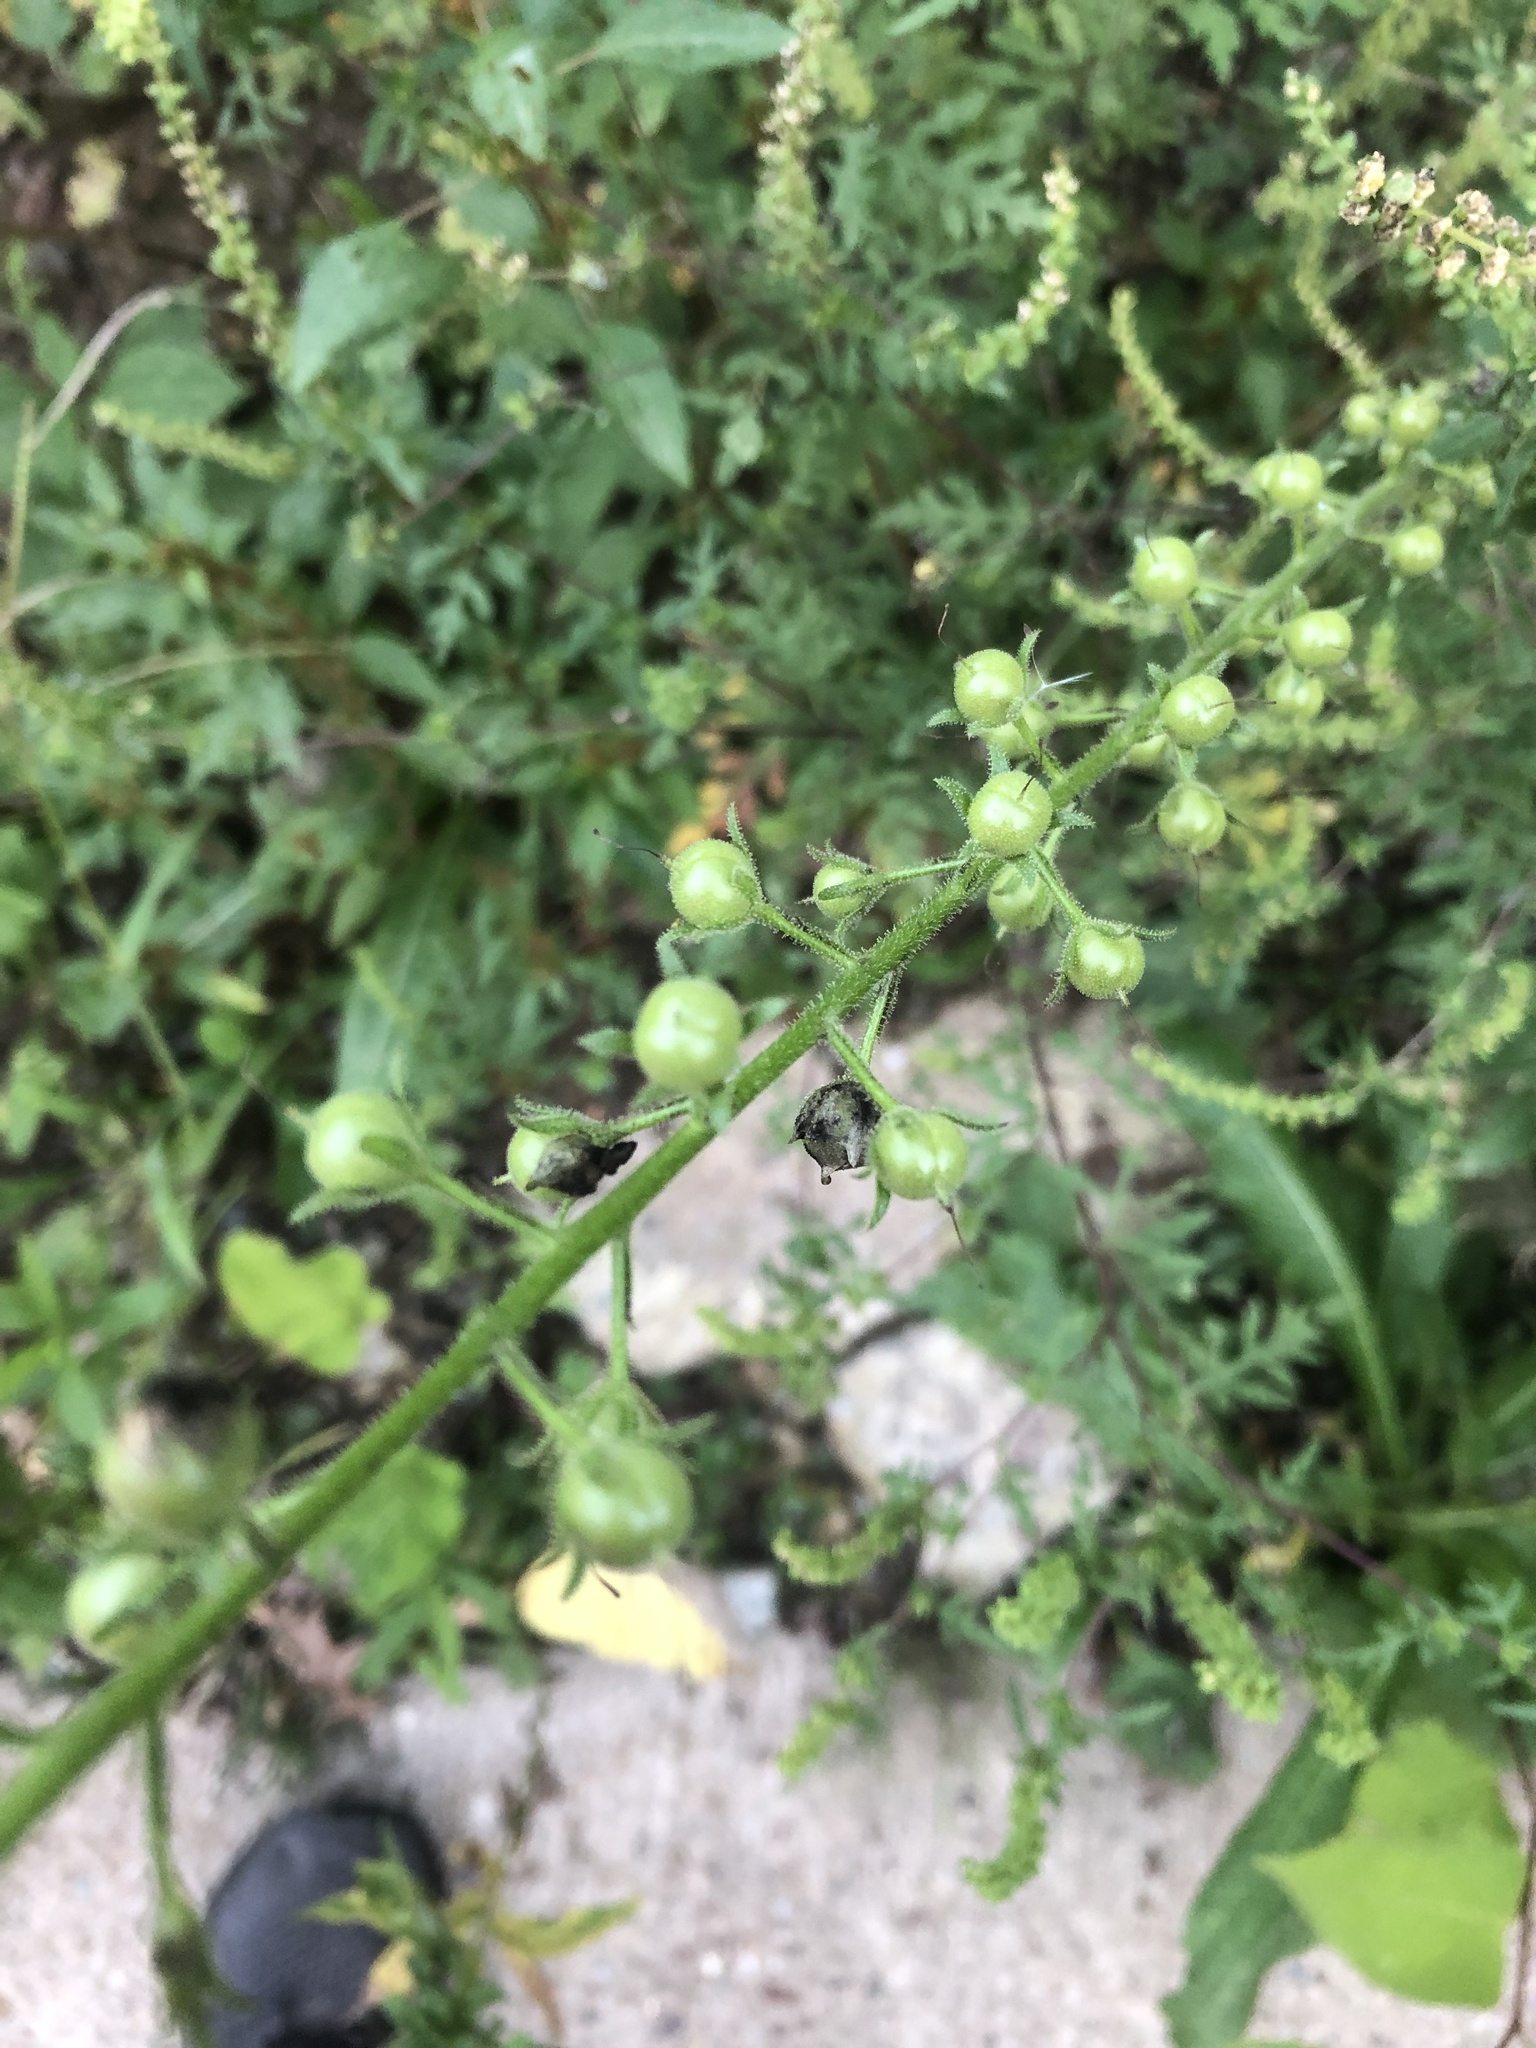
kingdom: Plantae
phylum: Tracheophyta
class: Magnoliopsida
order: Lamiales
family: Scrophulariaceae
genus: Verbascum
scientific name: Verbascum blattaria
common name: Moth mullein
